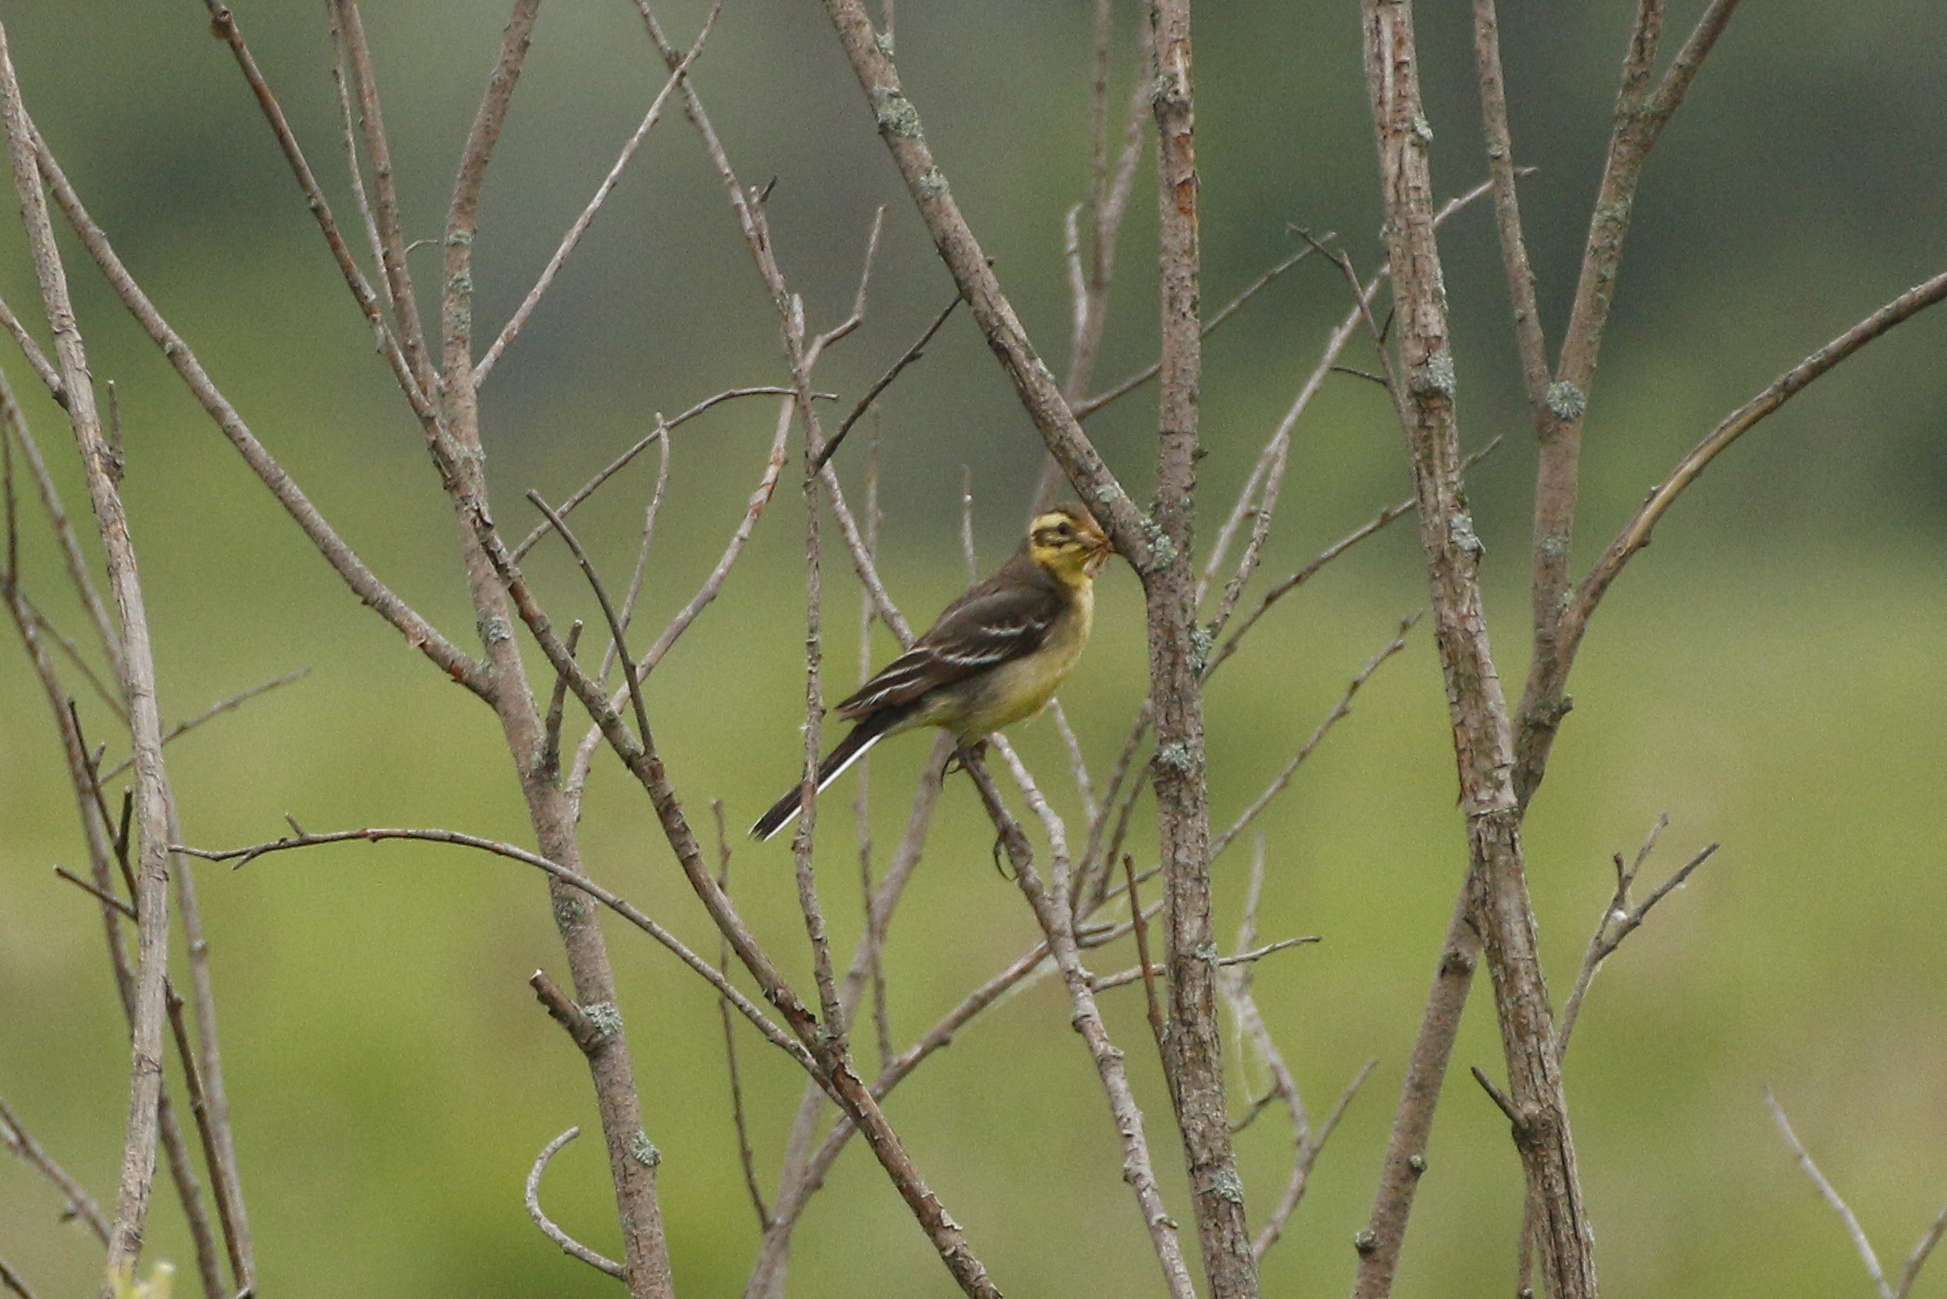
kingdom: Animalia
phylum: Chordata
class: Aves
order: Passeriformes
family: Motacillidae
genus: Motacilla
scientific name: Motacilla citreola
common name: Citrine wagtail
